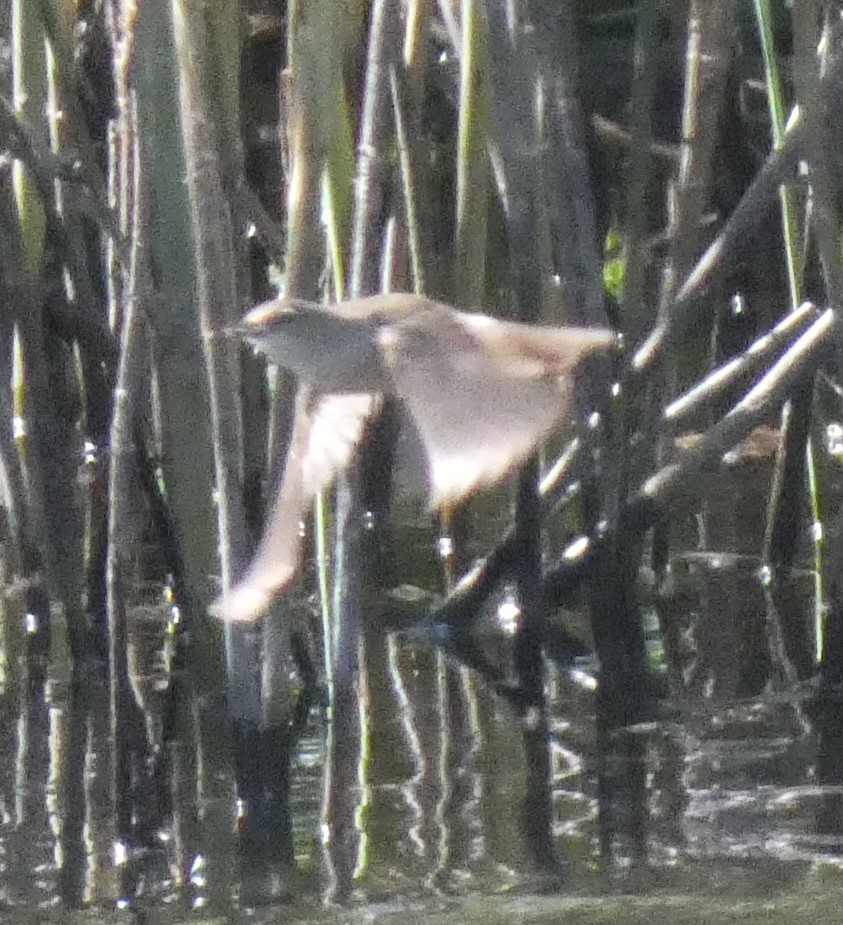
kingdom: Animalia
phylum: Chordata
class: Aves
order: Passeriformes
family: Acrocephalidae
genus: Acrocephalus
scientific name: Acrocephalus scirpaceus
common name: Eurasian reed warbler
